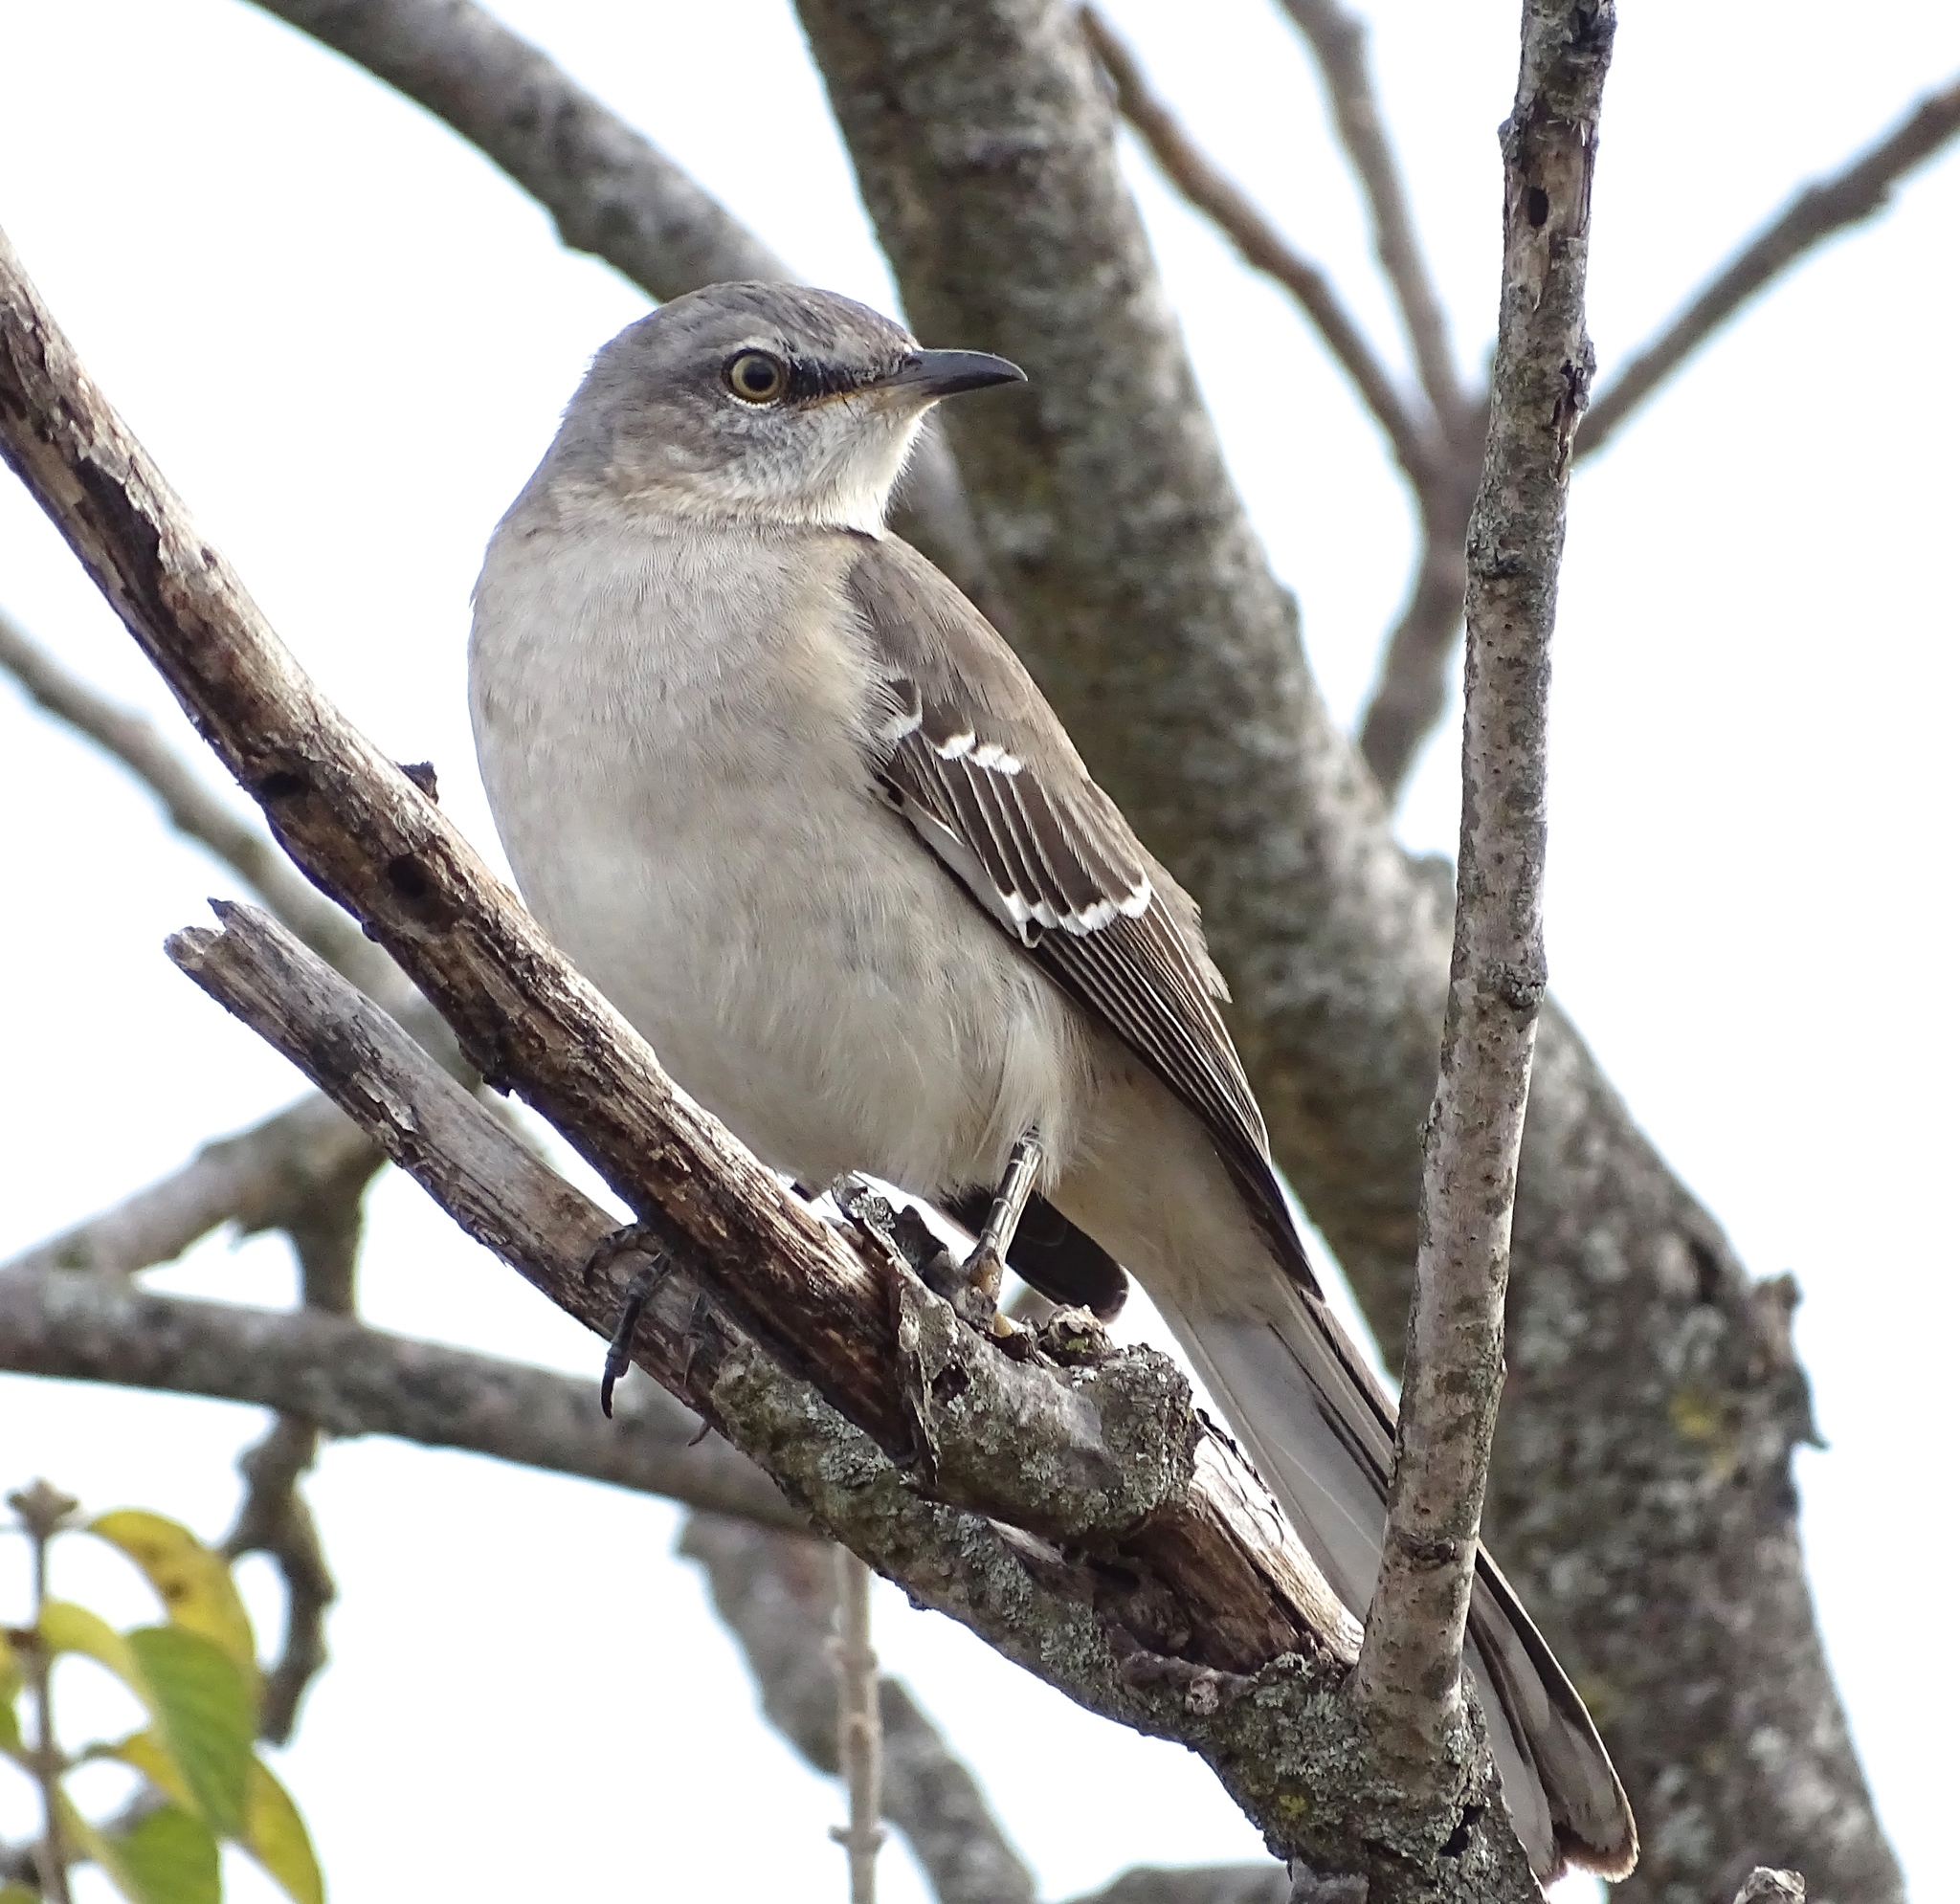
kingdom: Animalia
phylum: Chordata
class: Aves
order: Passeriformes
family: Mimidae
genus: Mimus
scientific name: Mimus polyglottos
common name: Northern mockingbird
